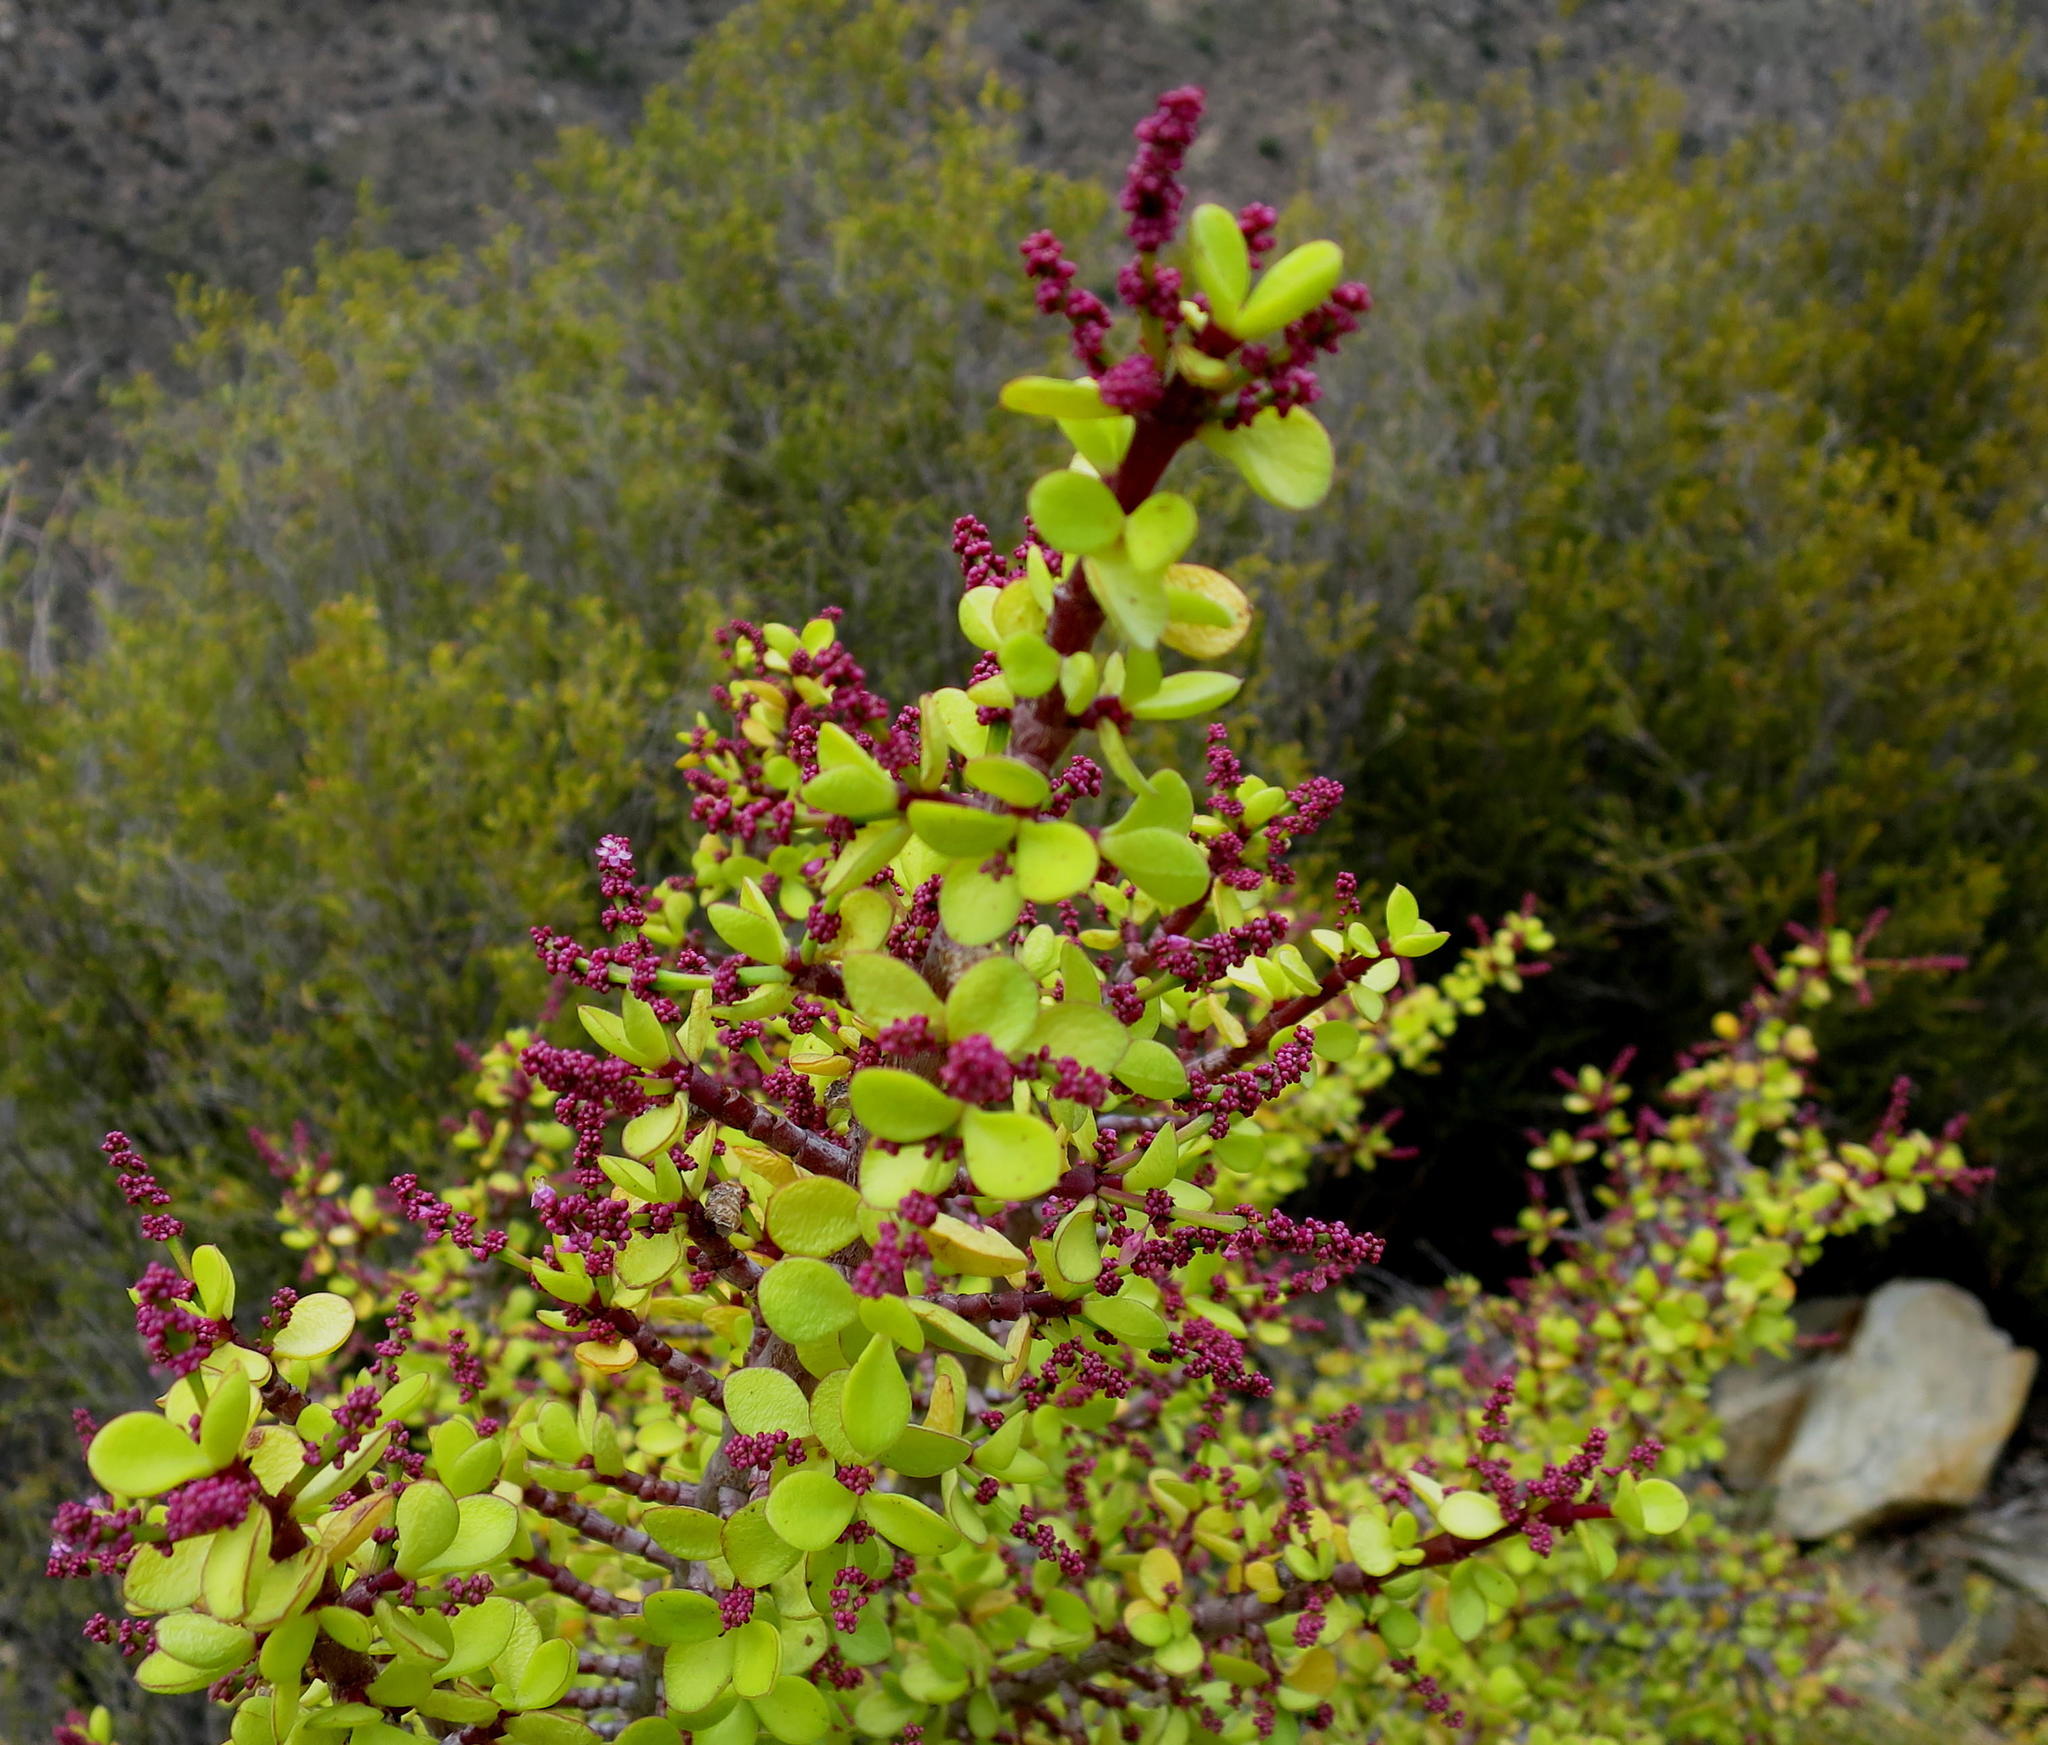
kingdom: Plantae
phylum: Tracheophyta
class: Magnoliopsida
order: Caryophyllales
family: Didiereaceae
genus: Portulacaria
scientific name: Portulacaria afra
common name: Elephant-bush
